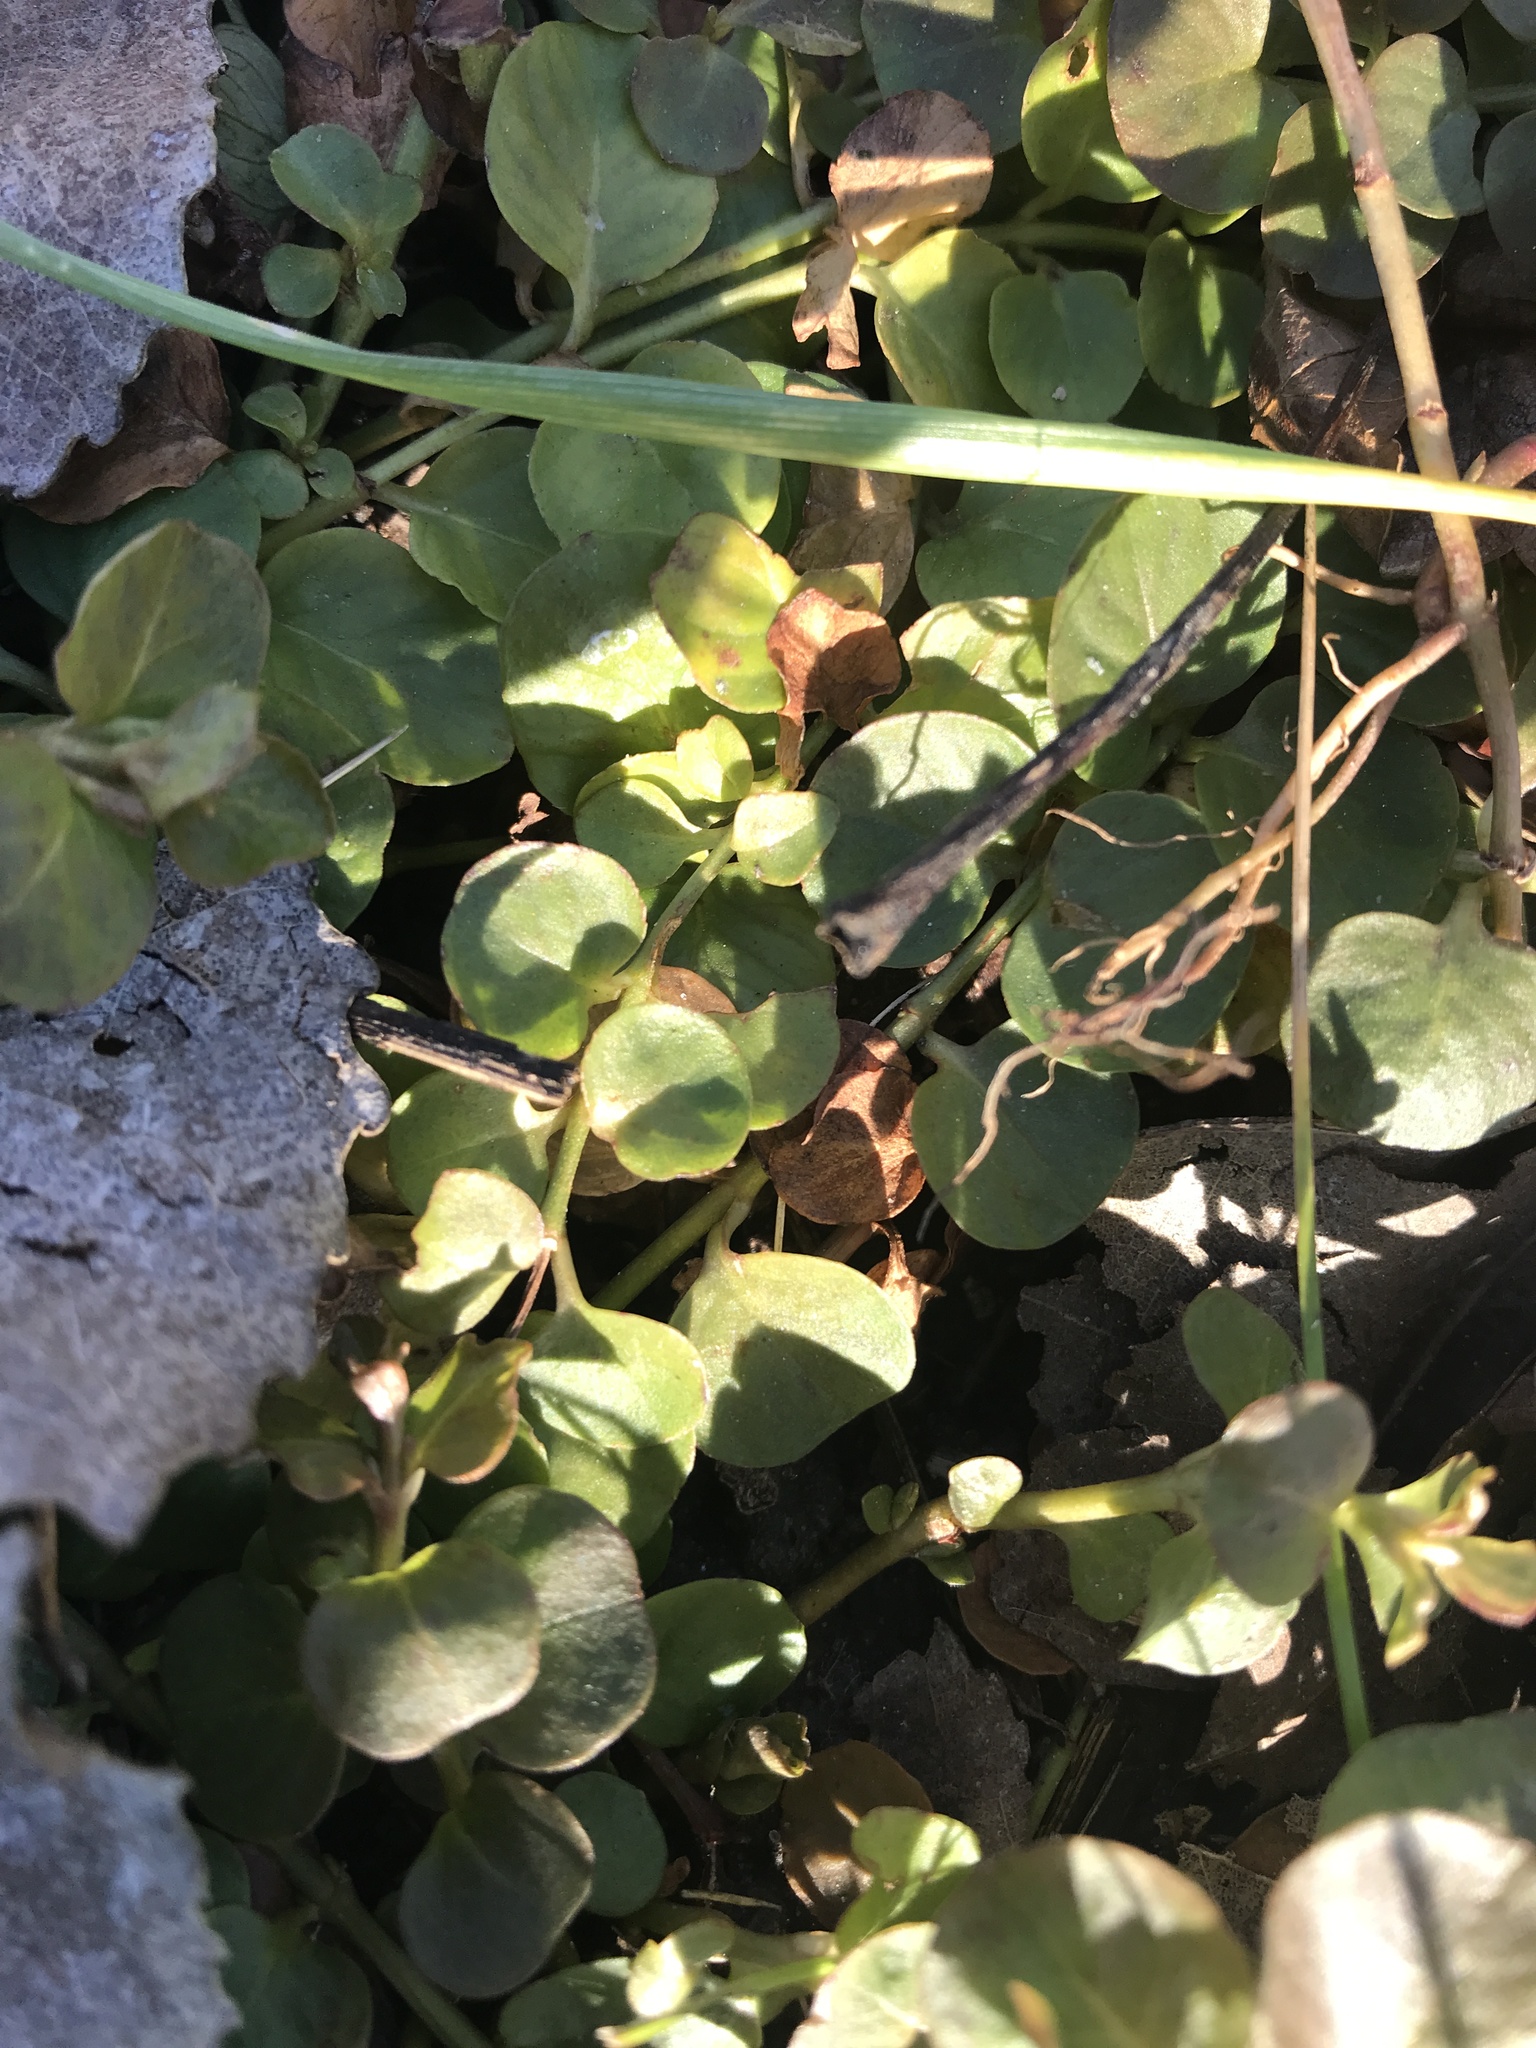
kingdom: Plantae
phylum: Tracheophyta
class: Magnoliopsida
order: Ericales
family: Primulaceae
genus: Lysimachia
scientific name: Lysimachia nummularia
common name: Moneywort
